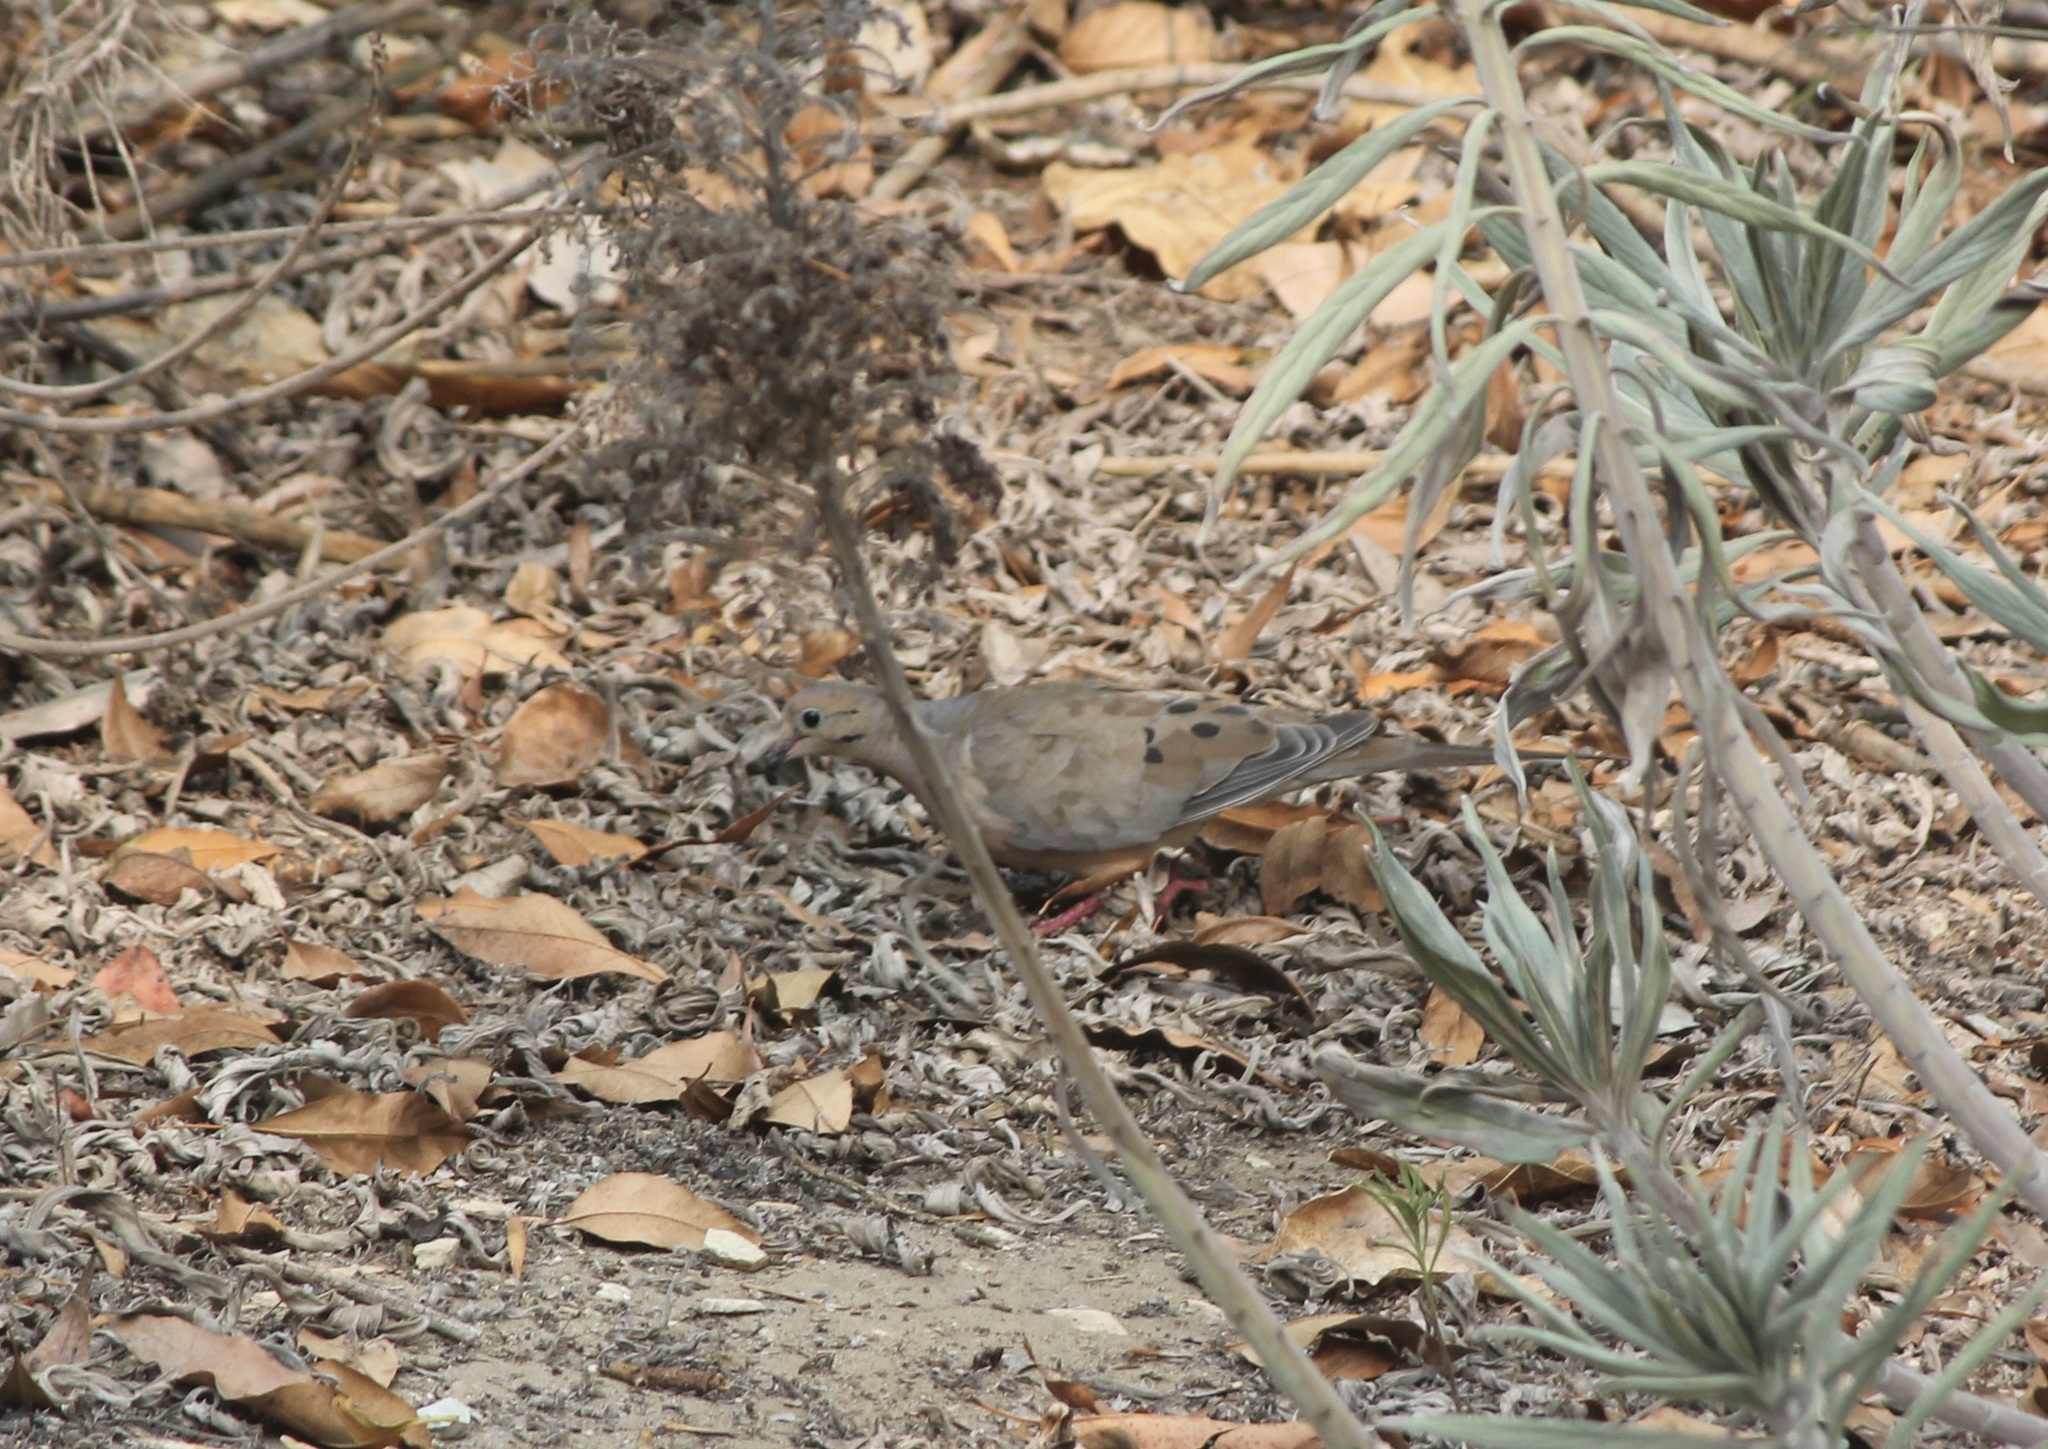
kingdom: Animalia
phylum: Chordata
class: Aves
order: Columbiformes
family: Columbidae
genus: Zenaida
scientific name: Zenaida macroura
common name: Mourning dove
